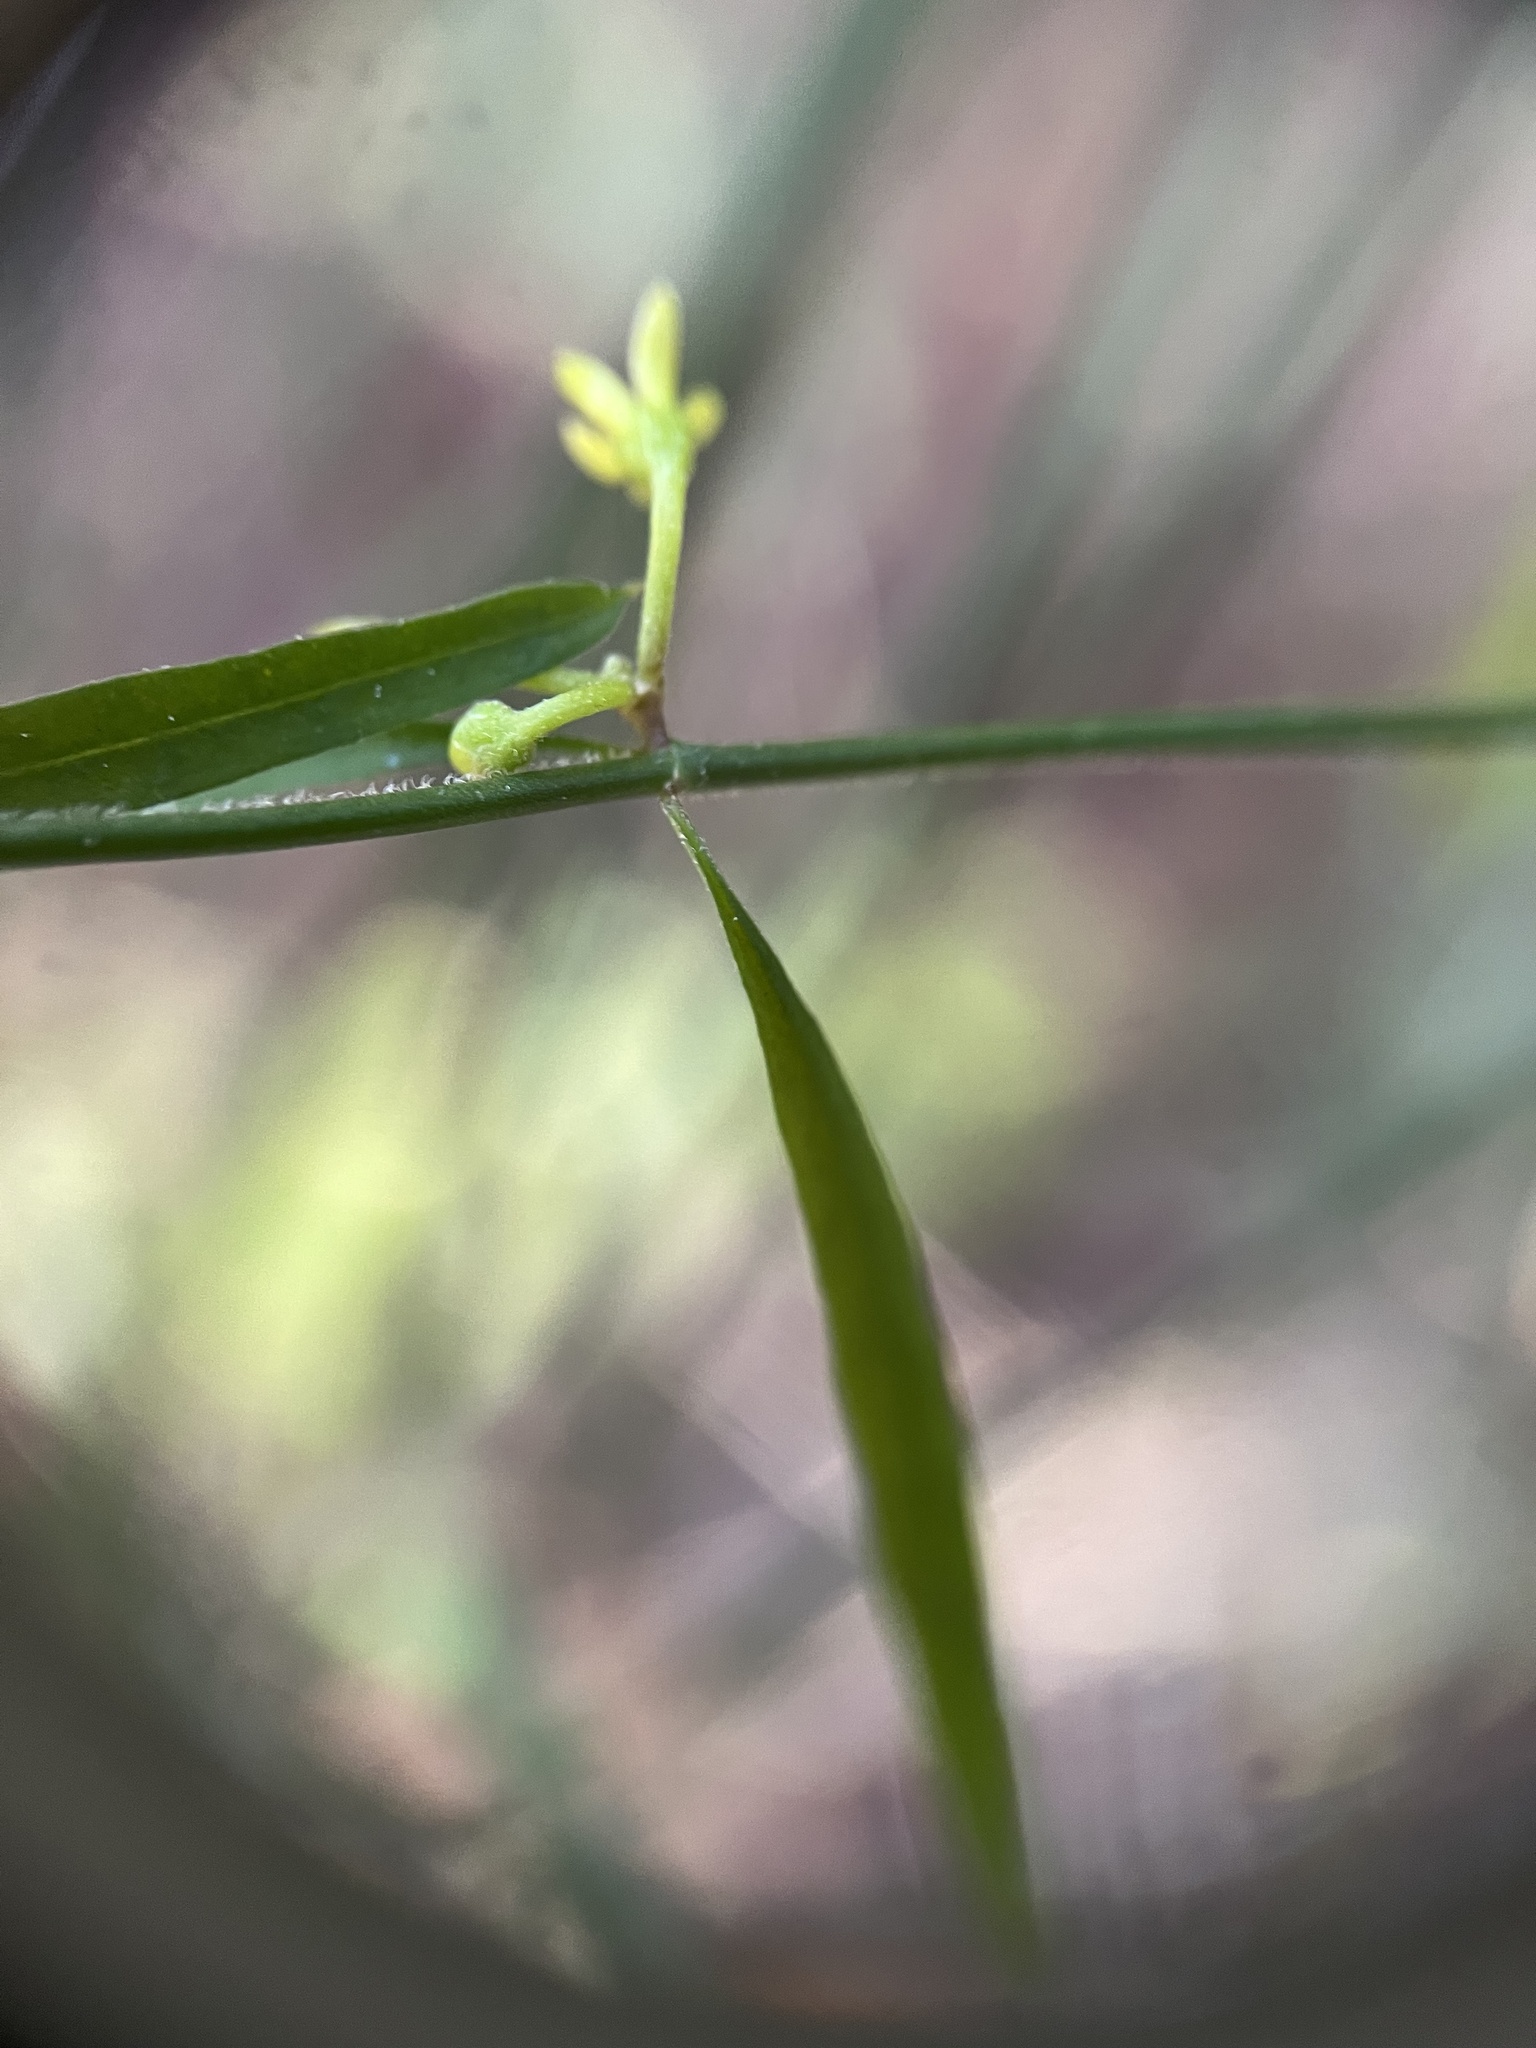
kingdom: Plantae
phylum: Tracheophyta
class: Magnoliopsida
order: Gentianales
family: Apocynaceae
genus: Orthosia
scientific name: Orthosia scoparia
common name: Leafless swallow-wort
